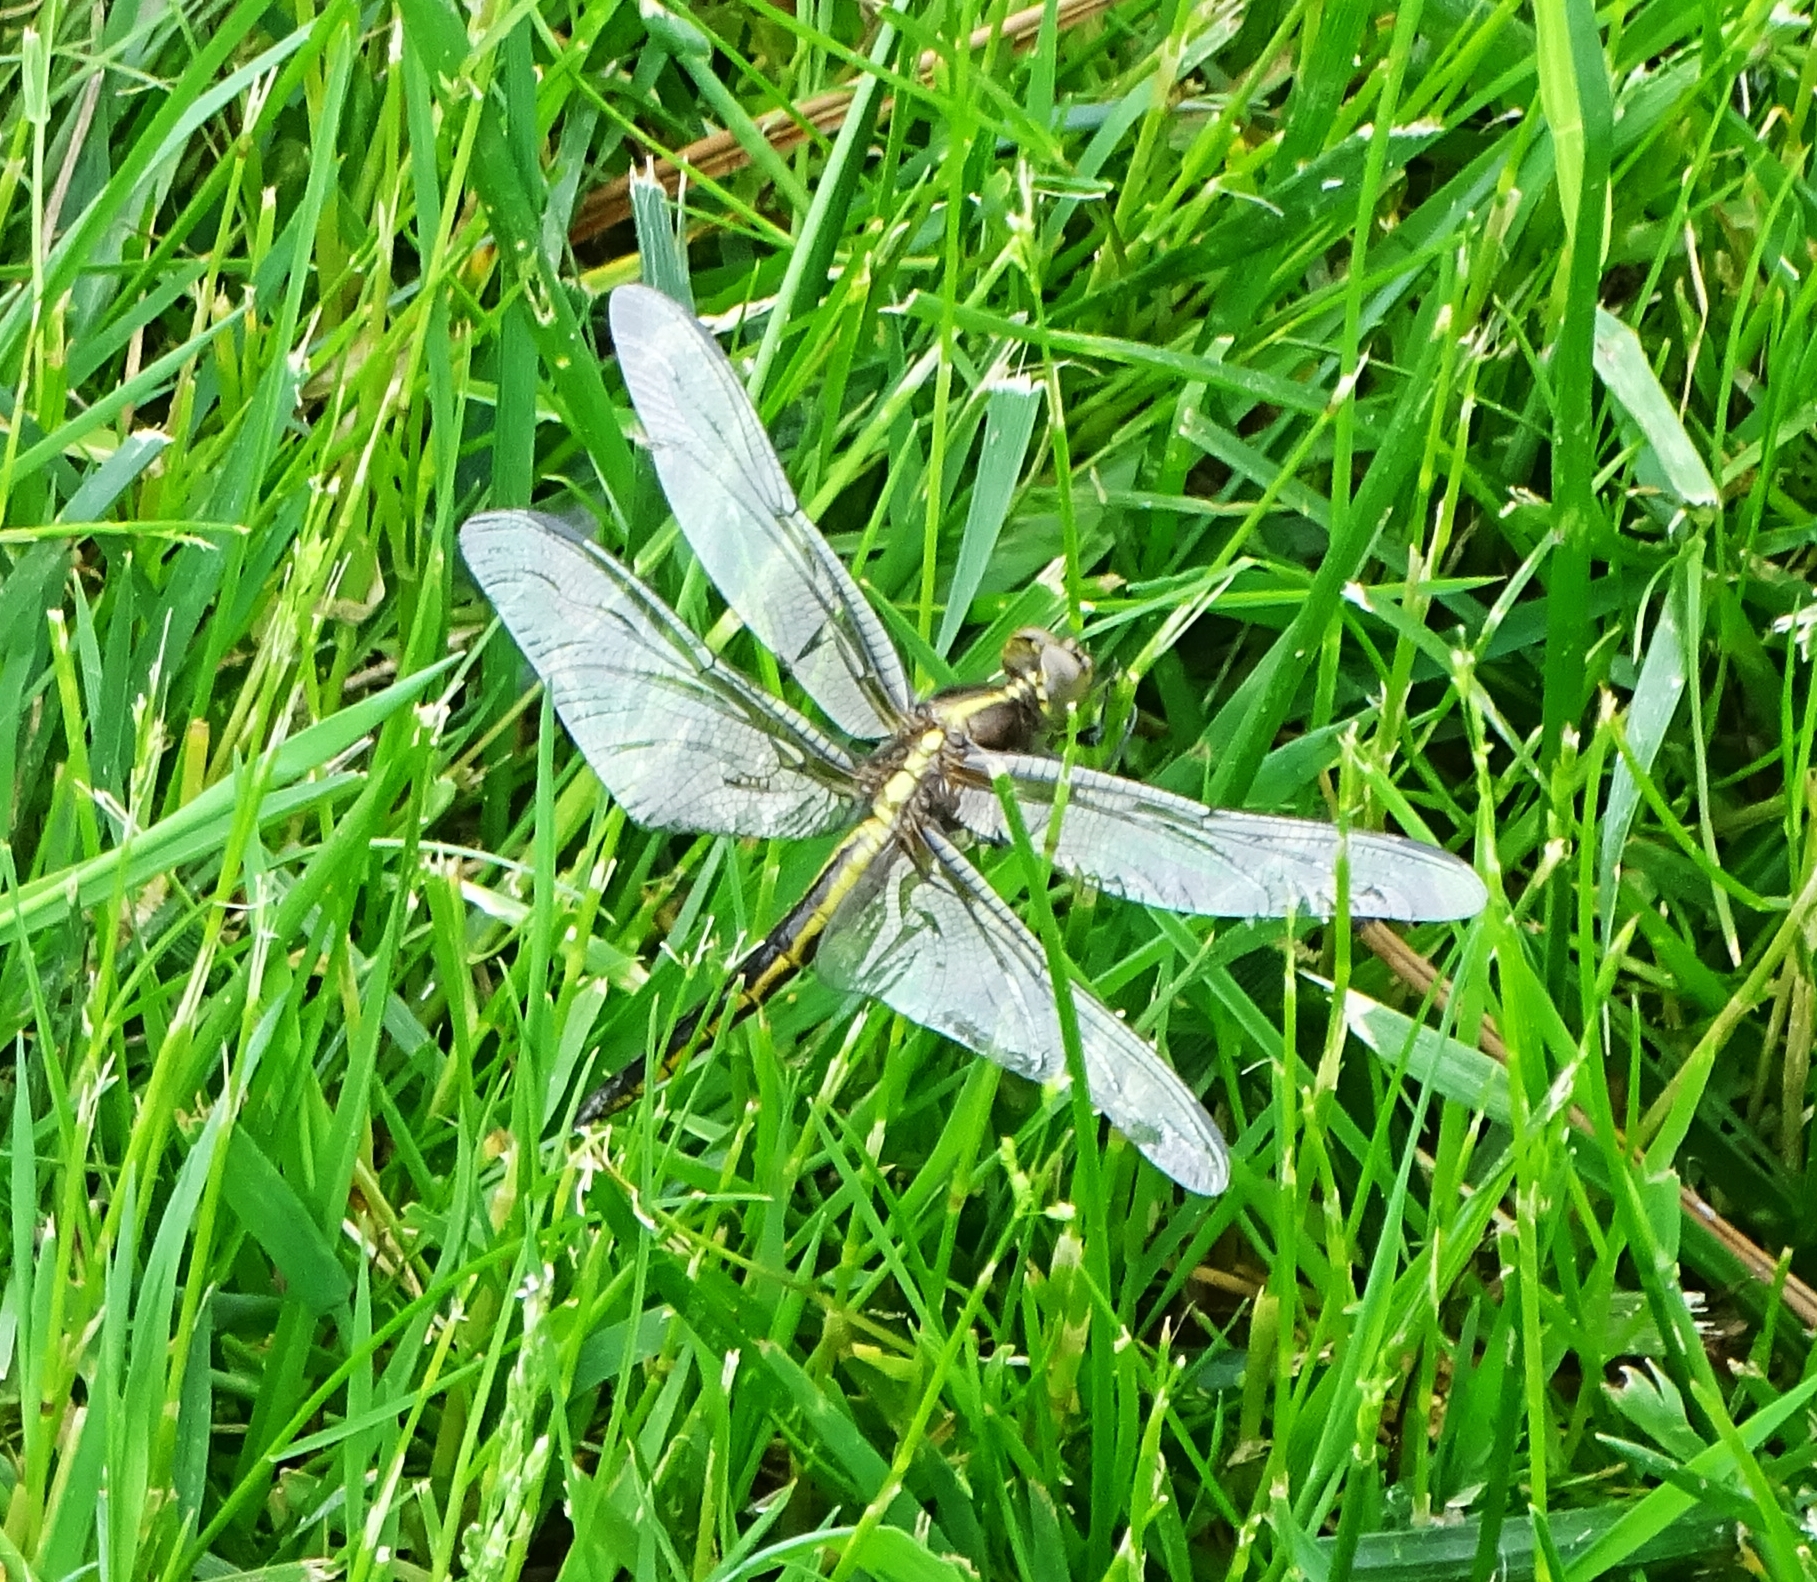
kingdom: Animalia
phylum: Arthropoda
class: Insecta
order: Odonata
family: Libellulidae
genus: Libellula
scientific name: Libellula luctuosa
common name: Widow skimmer
